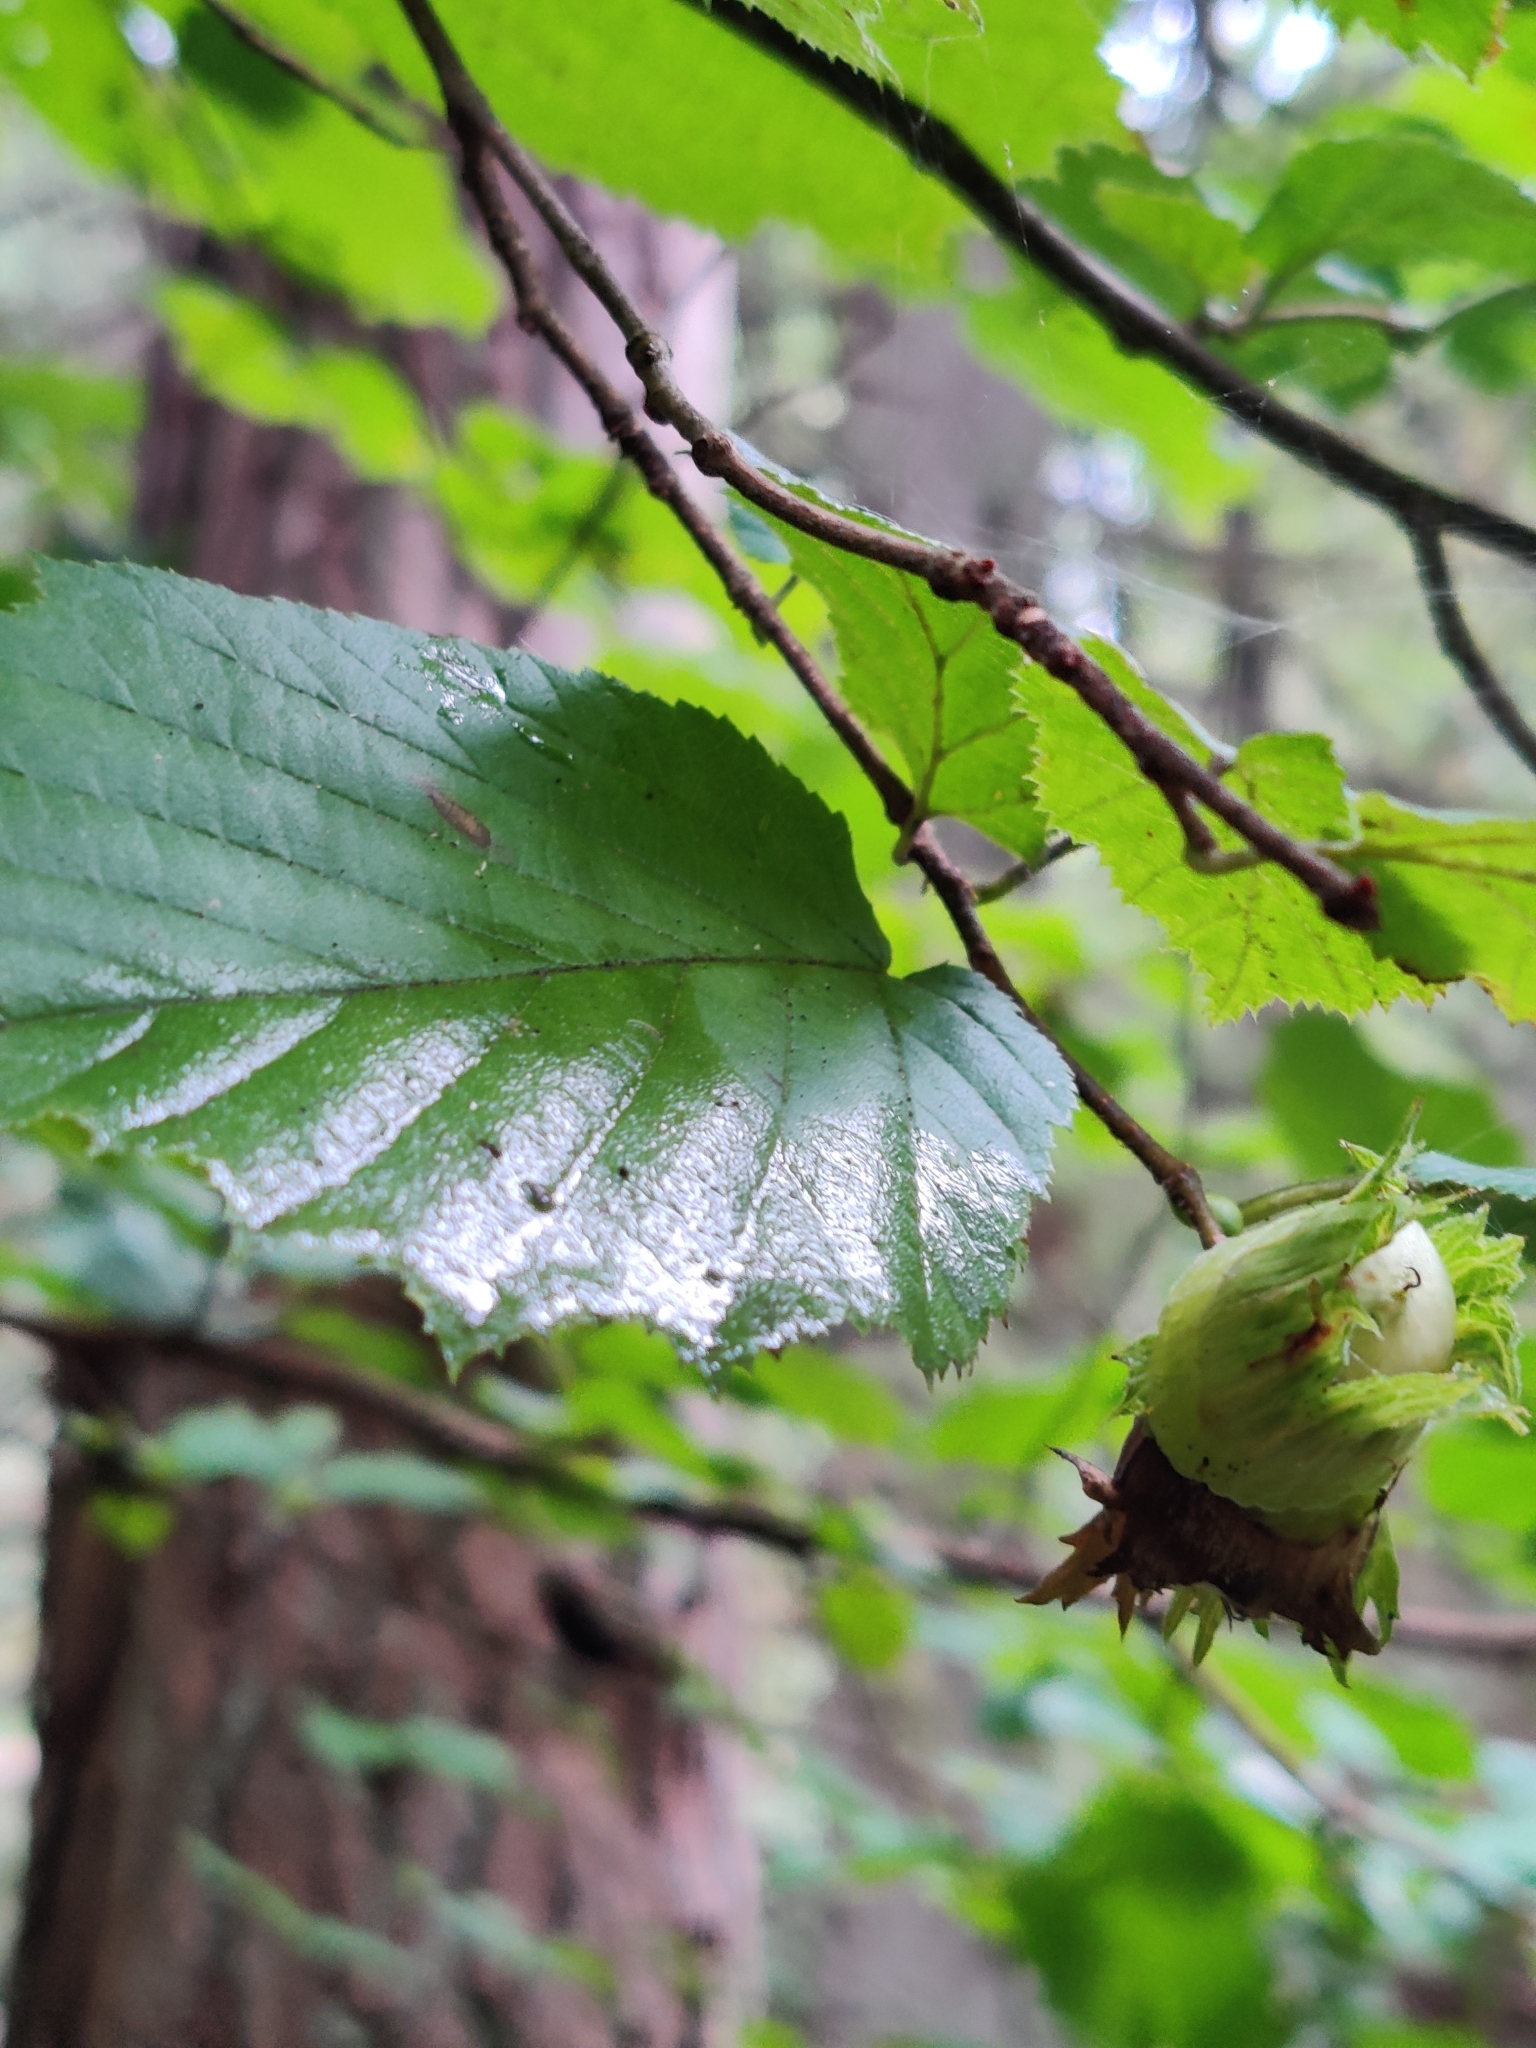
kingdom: Plantae
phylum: Tracheophyta
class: Magnoliopsida
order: Fagales
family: Betulaceae
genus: Corylus
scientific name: Corylus avellana
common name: European hazel
